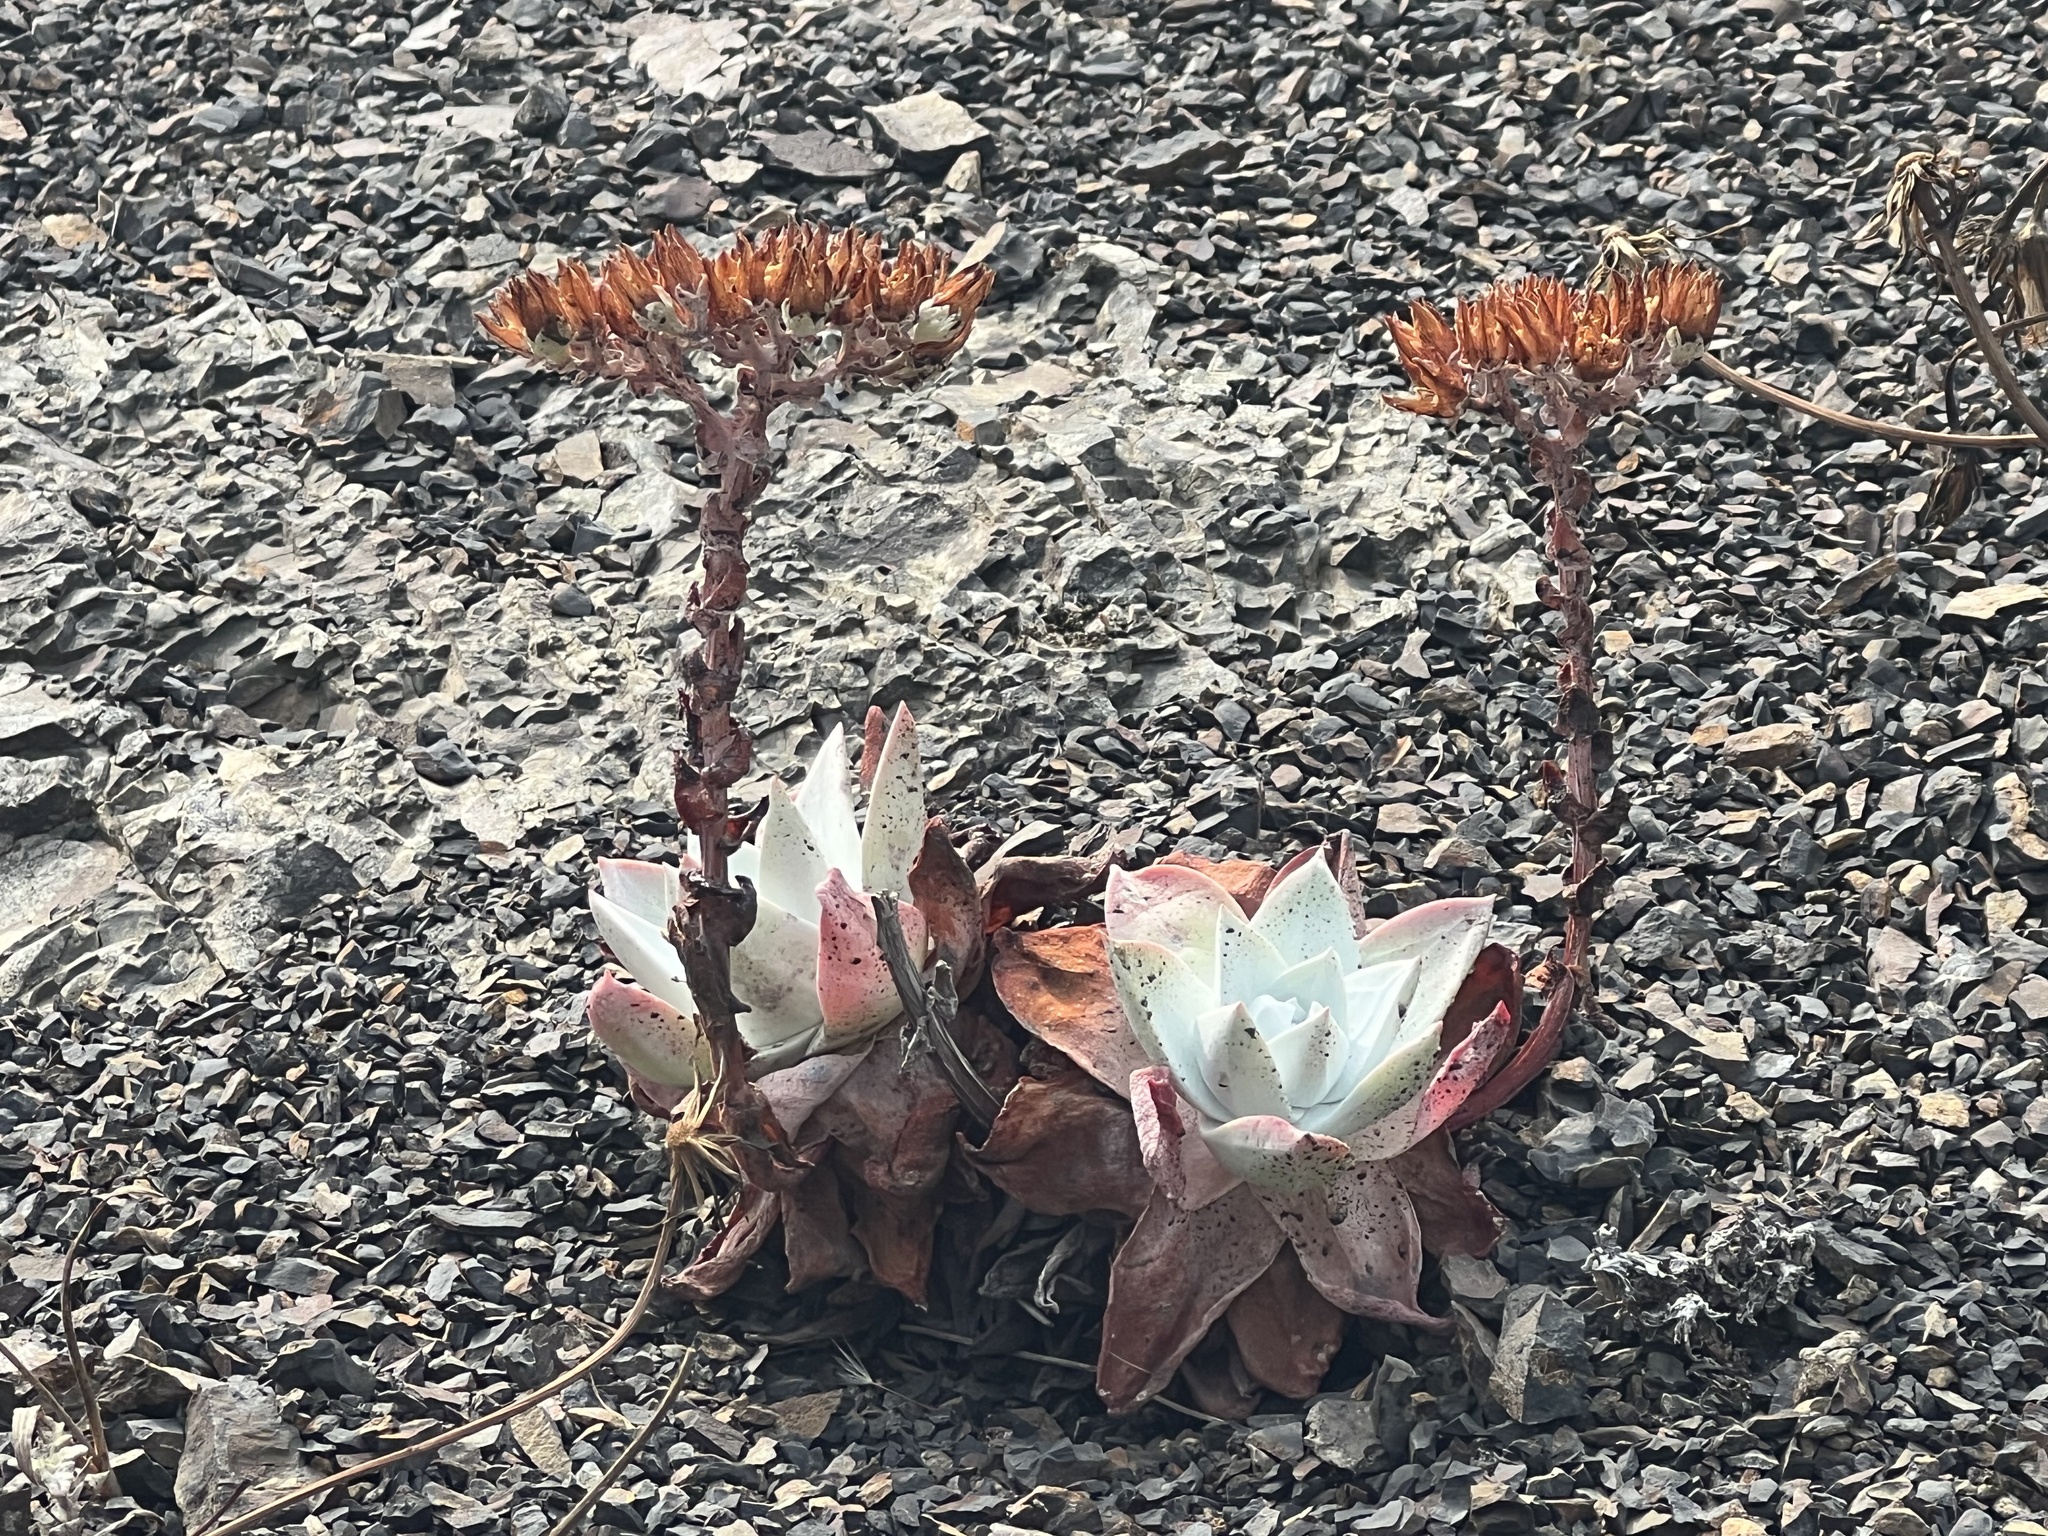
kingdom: Plantae
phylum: Tracheophyta
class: Magnoliopsida
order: Saxifragales
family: Crassulaceae
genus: Dudleya
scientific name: Dudleya farinosa
